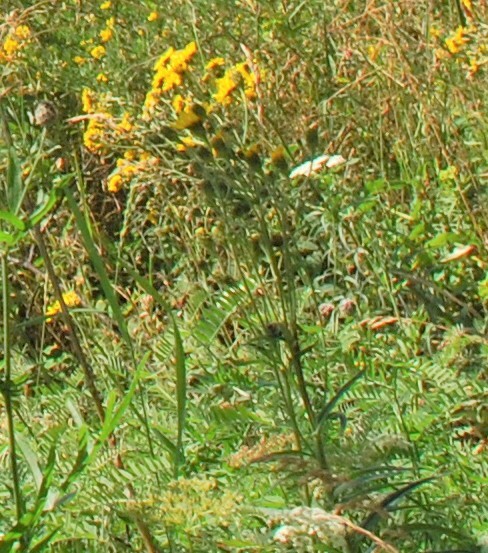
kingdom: Plantae
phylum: Tracheophyta
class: Magnoliopsida
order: Asterales
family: Asteraceae
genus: Hieracium
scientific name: Hieracium umbellatum
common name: Northern hawkweed
